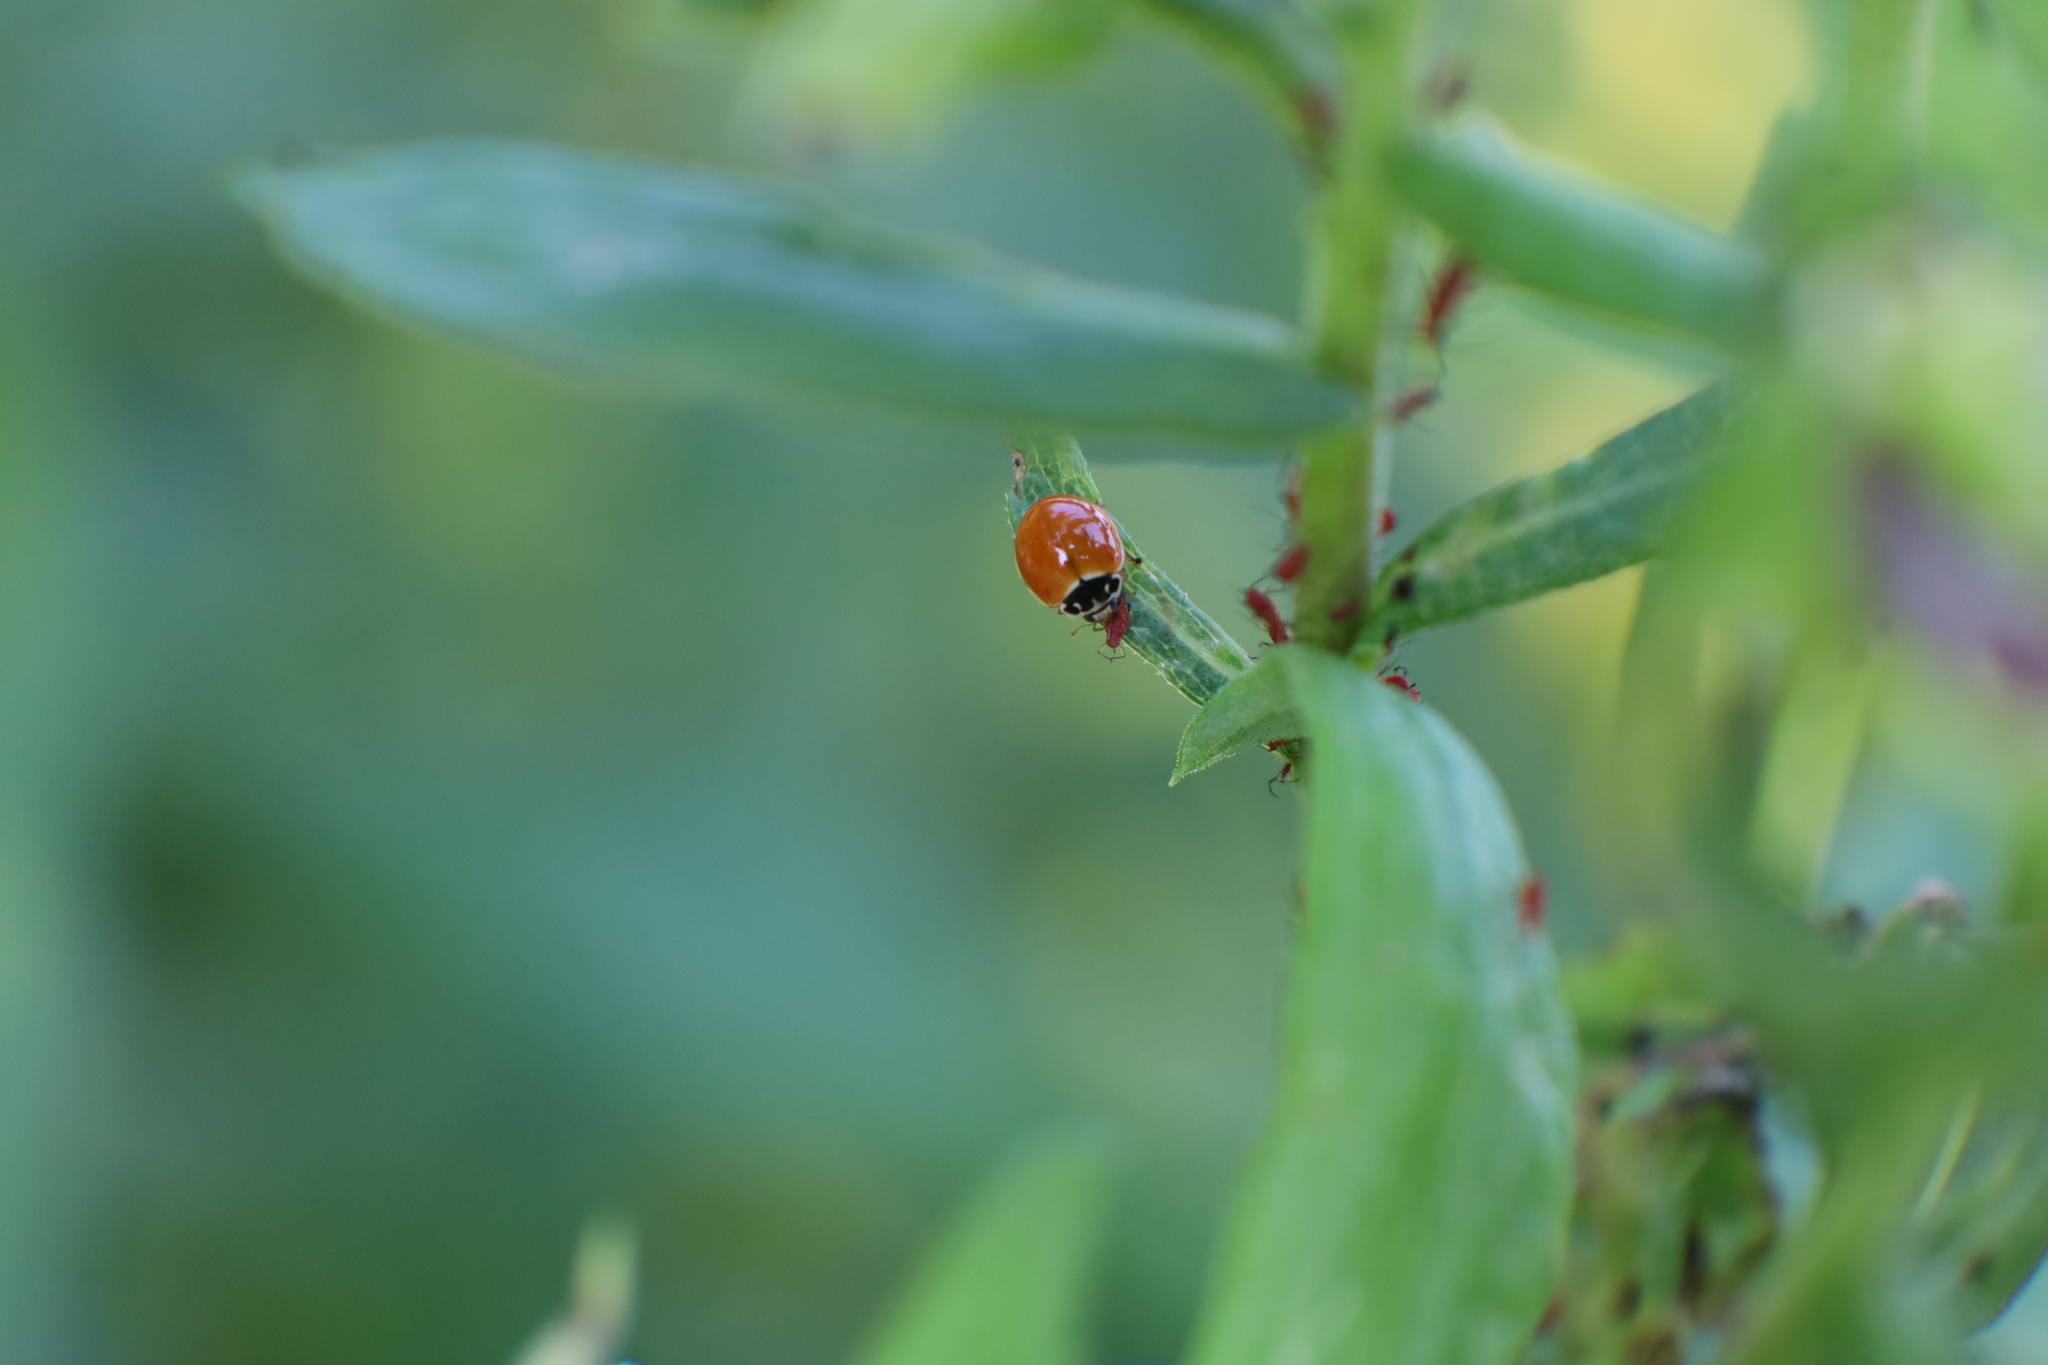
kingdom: Animalia
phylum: Arthropoda
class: Insecta
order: Coleoptera
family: Coccinellidae
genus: Cycloneda
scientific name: Cycloneda munda
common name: Polished lady beetle
